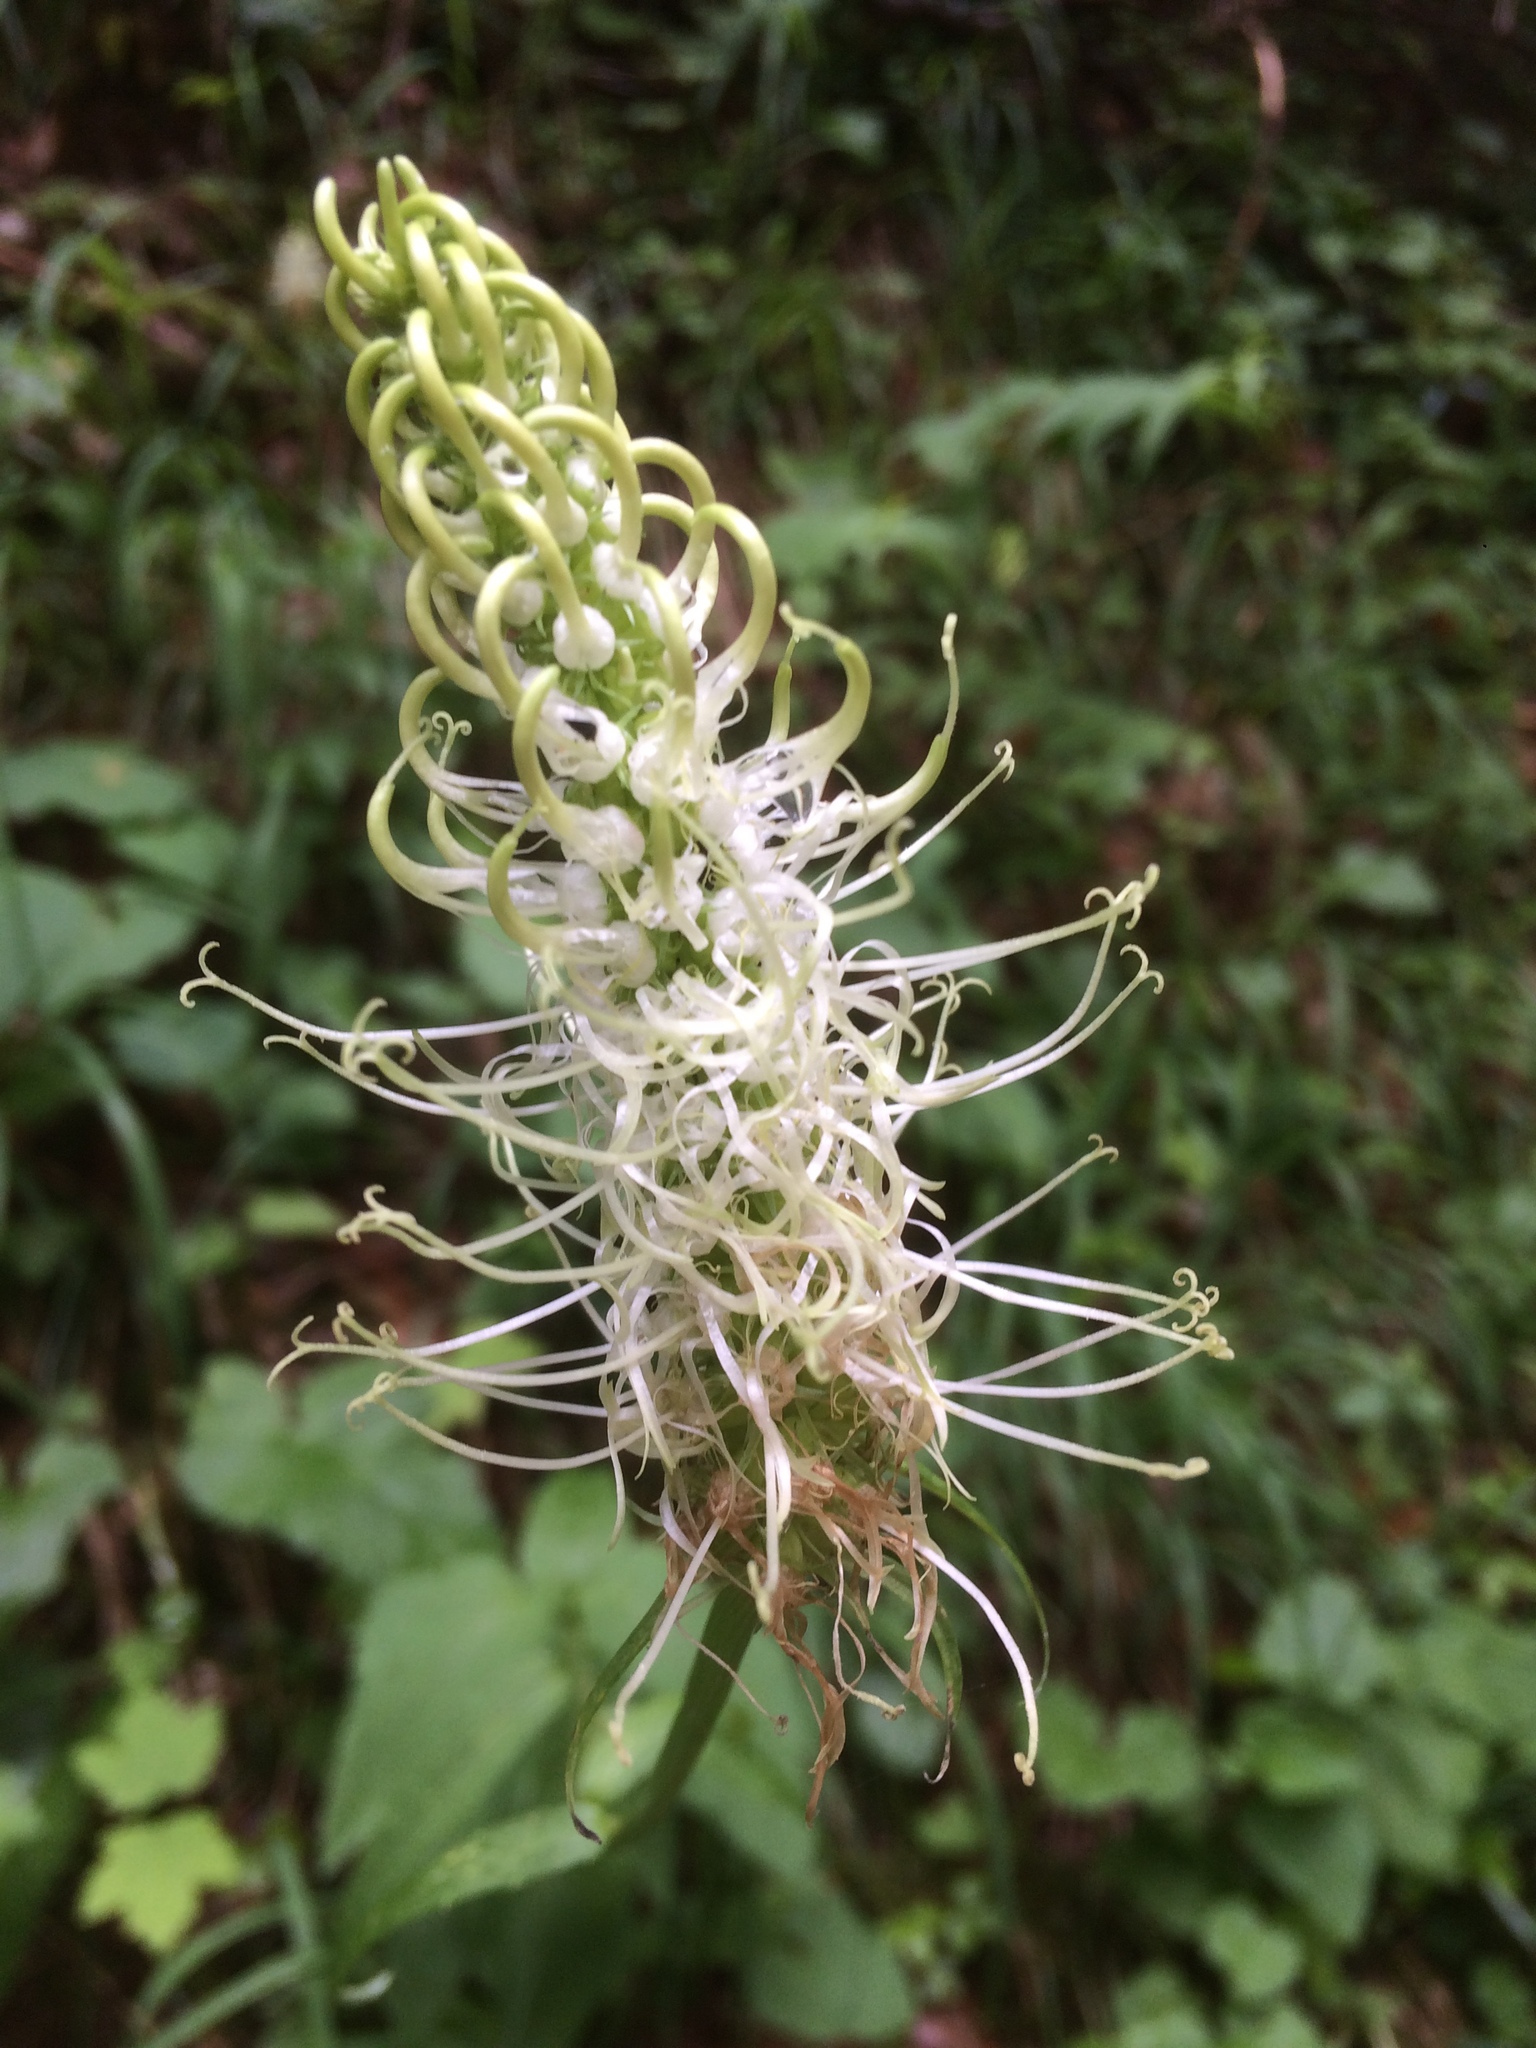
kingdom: Plantae
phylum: Tracheophyta
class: Magnoliopsida
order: Asterales
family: Campanulaceae
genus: Phyteuma
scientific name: Phyteuma spicatum
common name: Spiked rampion
